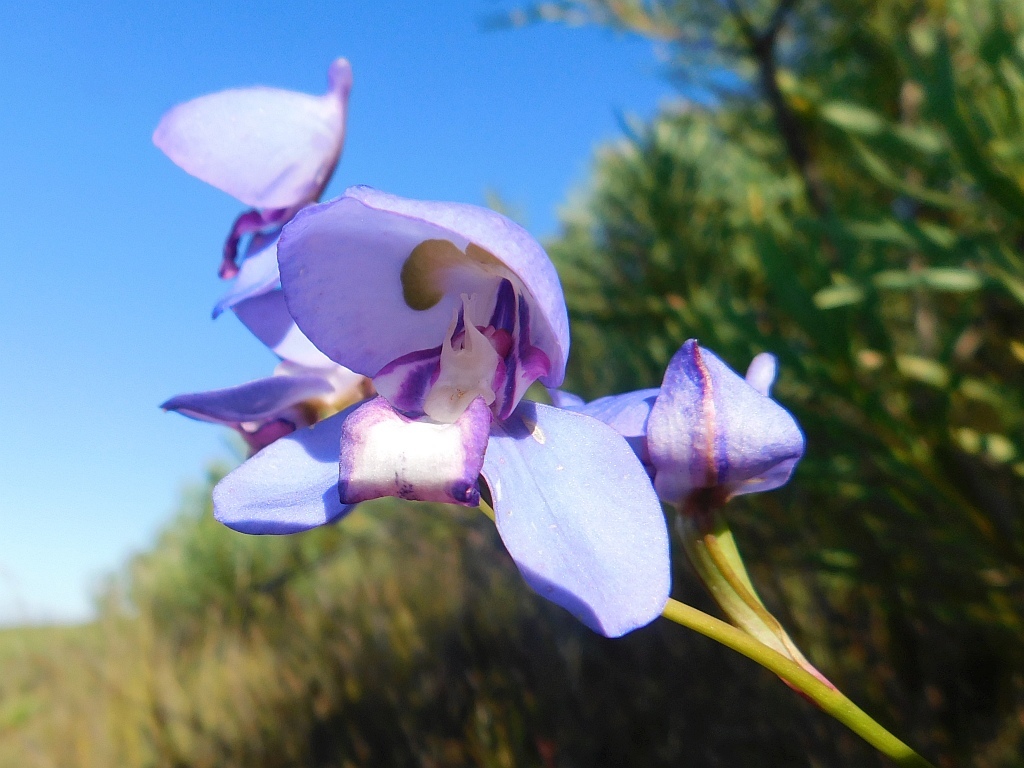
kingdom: Plantae
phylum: Tracheophyta
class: Liliopsida
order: Asparagales
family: Orchidaceae
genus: Disa
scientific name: Disa graminifolia
